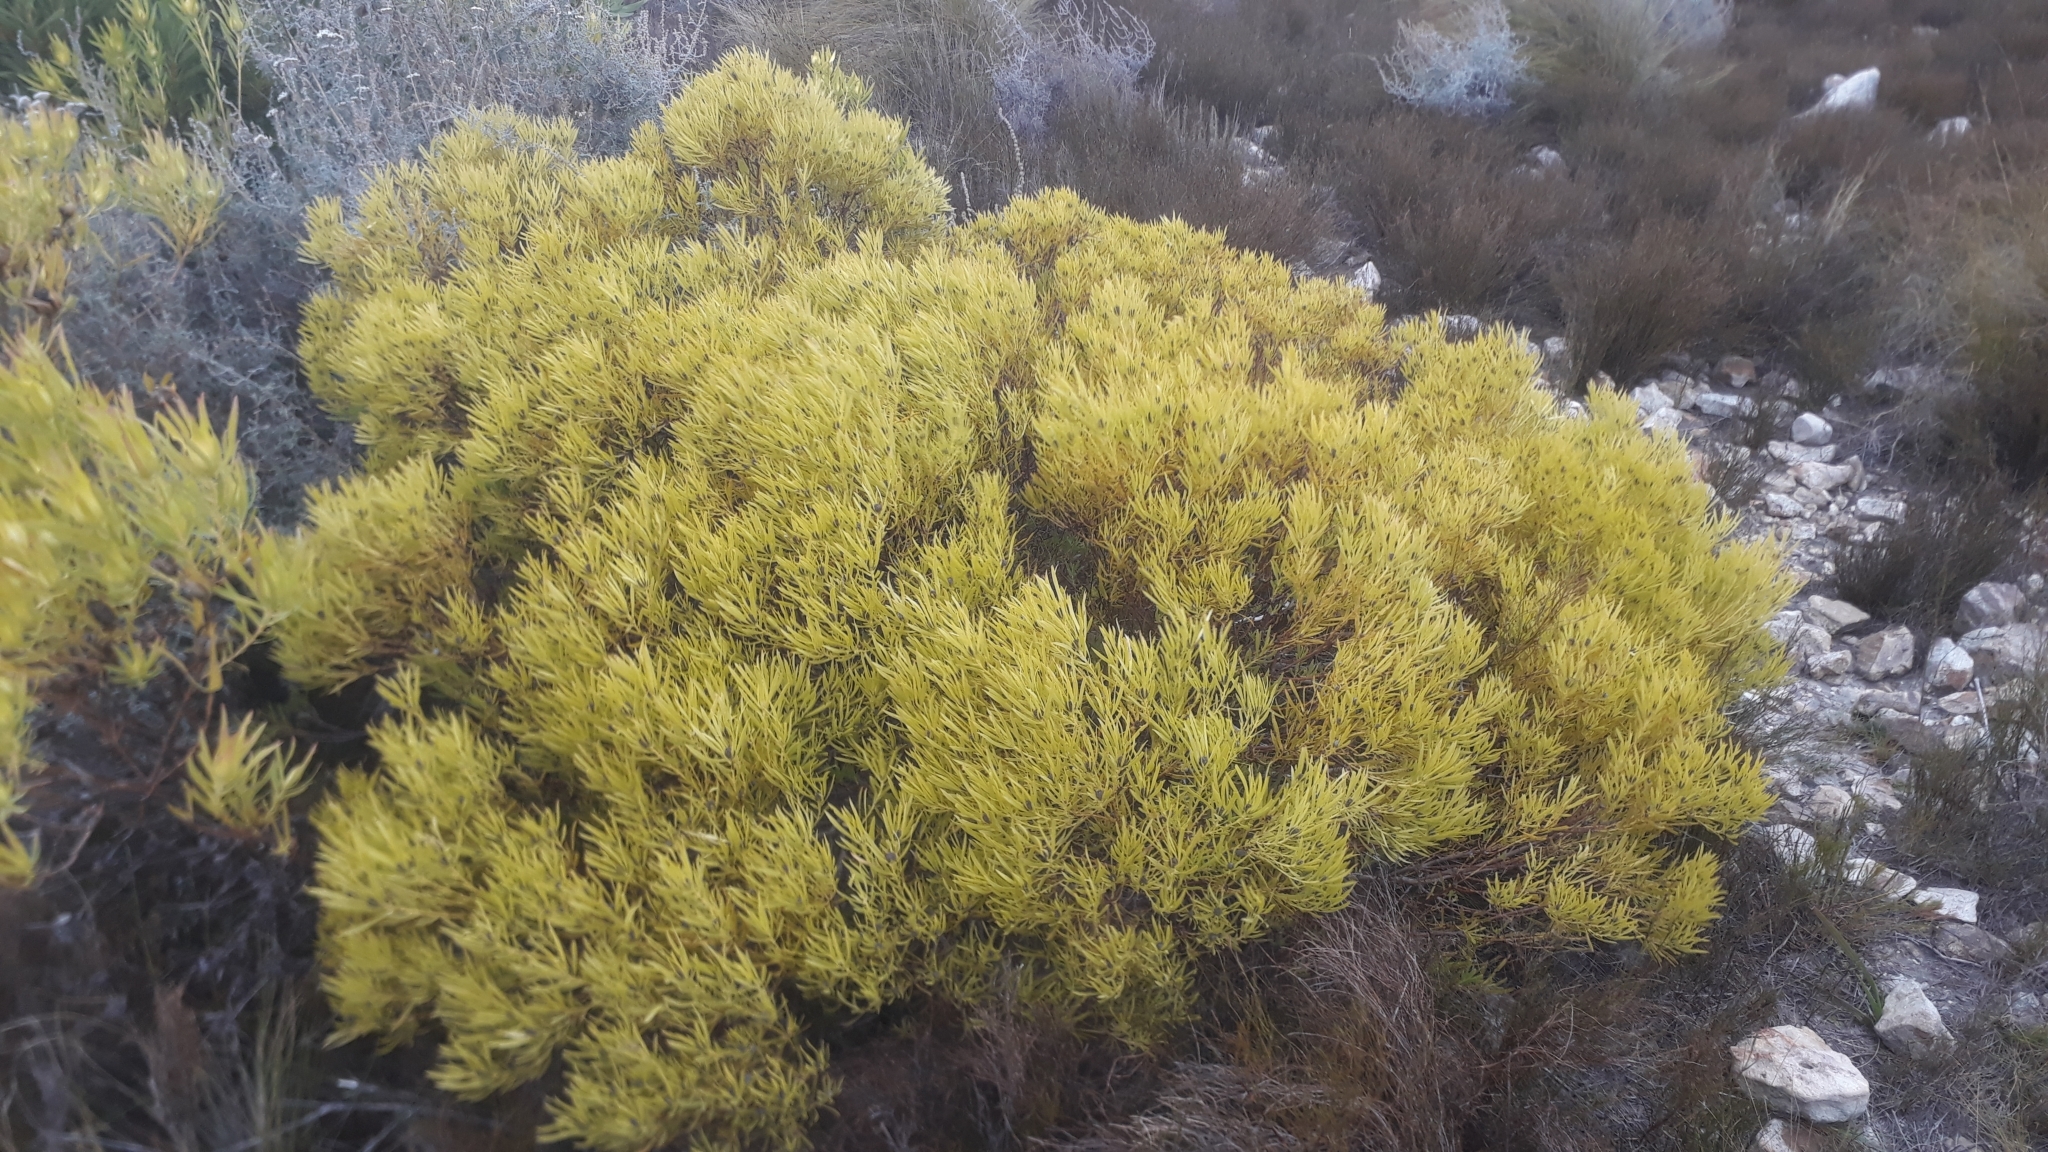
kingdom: Plantae
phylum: Tracheophyta
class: Magnoliopsida
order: Proteales
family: Proteaceae
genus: Leucadendron
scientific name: Leucadendron salignum
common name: Common sunshine conebush
